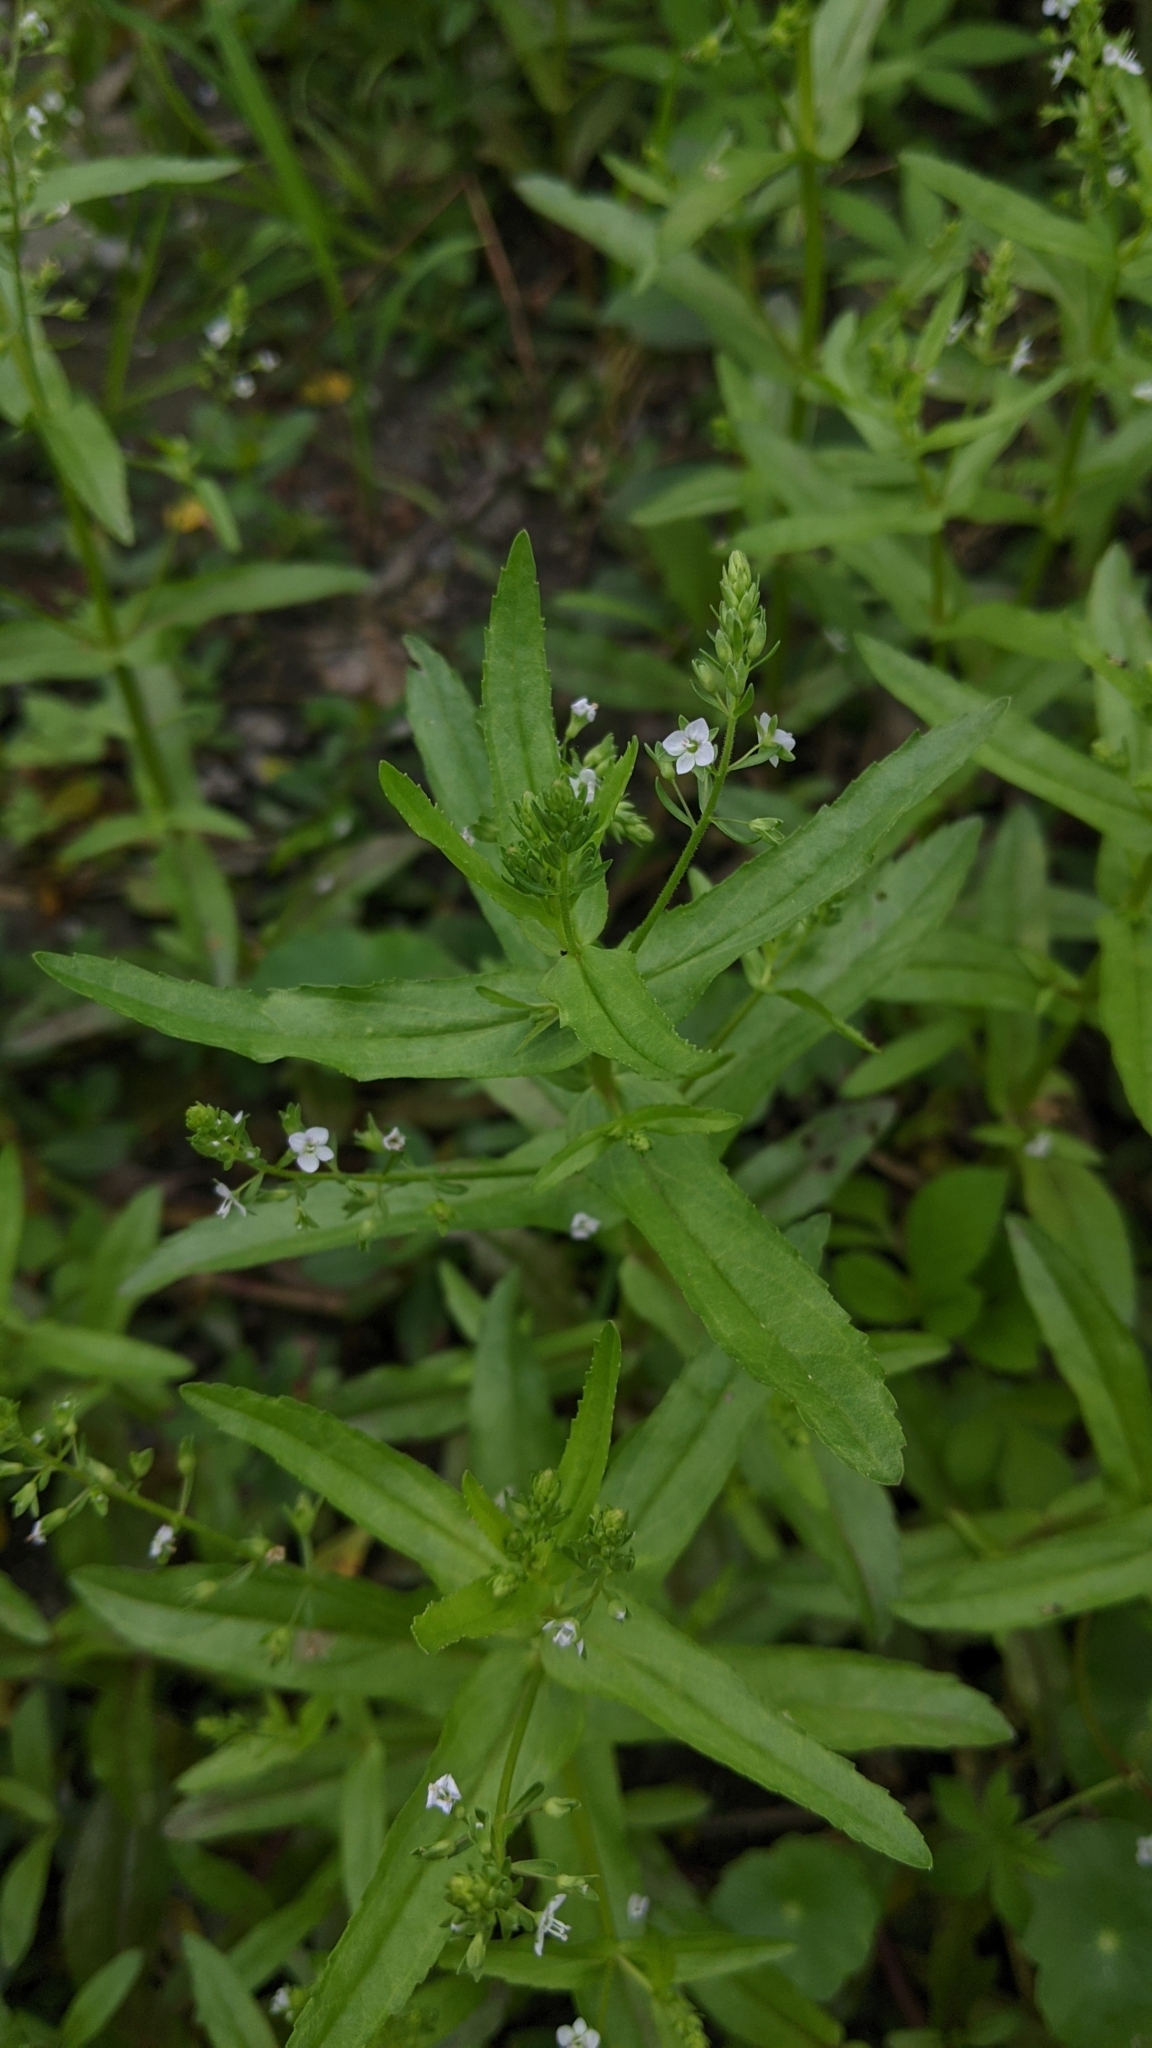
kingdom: Plantae
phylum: Tracheophyta
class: Magnoliopsida
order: Lamiales
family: Plantaginaceae
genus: Veronica
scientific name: Veronica undulata
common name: Undulate speedwell
